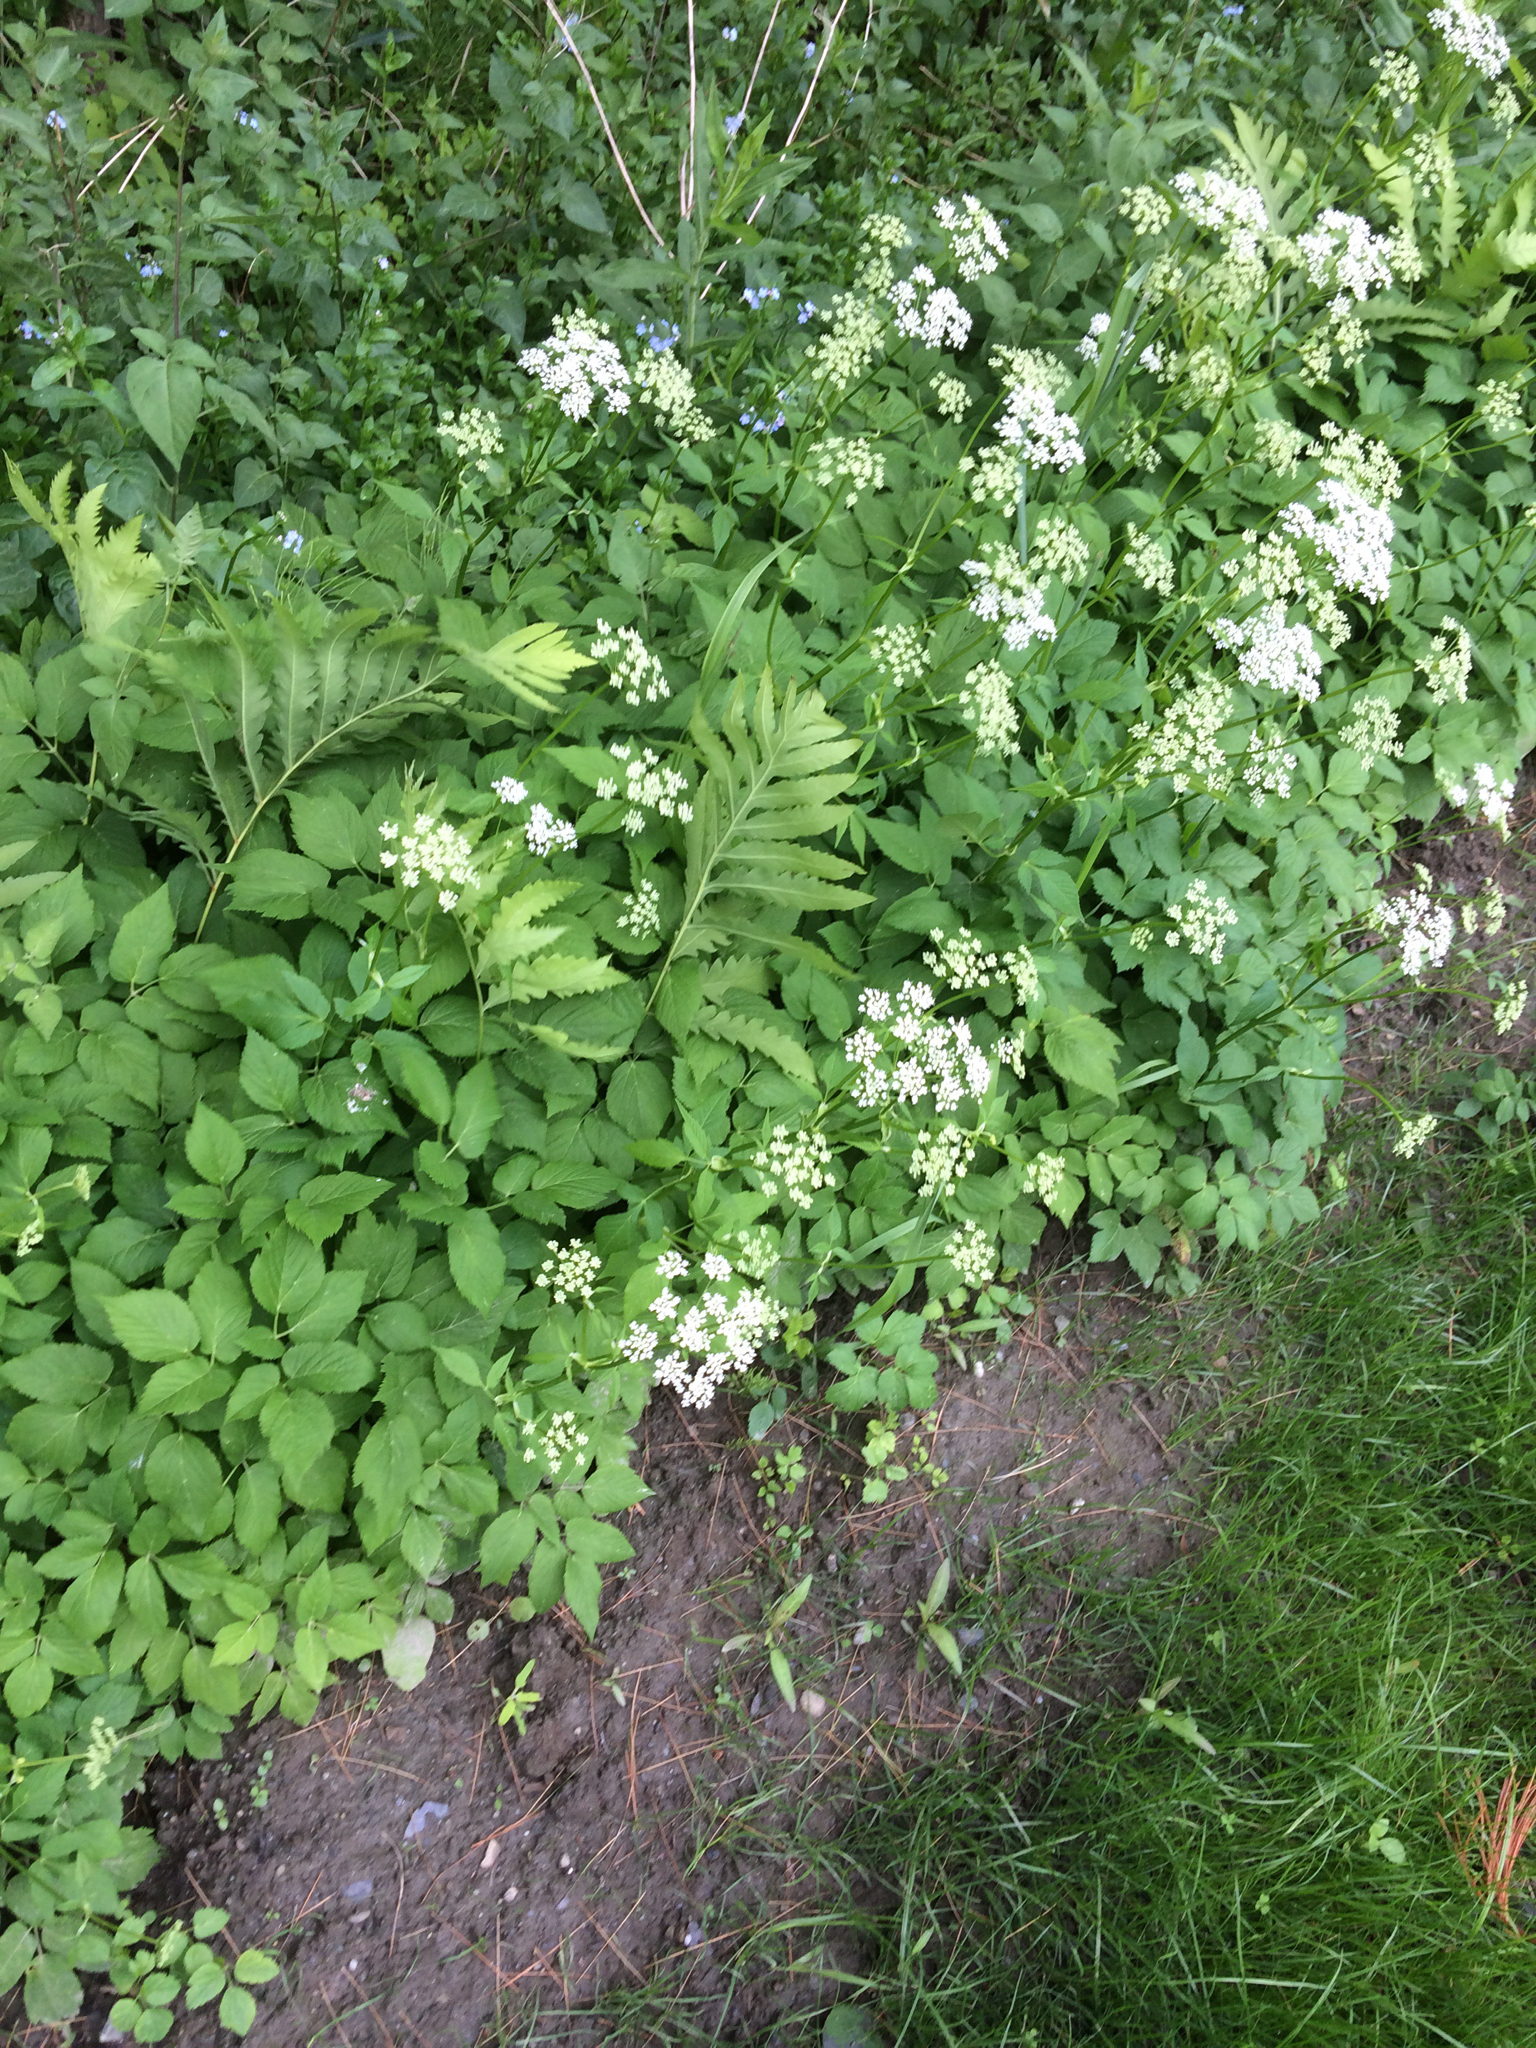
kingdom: Plantae
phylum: Tracheophyta
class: Magnoliopsida
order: Apiales
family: Apiaceae
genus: Aegopodium
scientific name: Aegopodium podagraria
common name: Ground-elder
